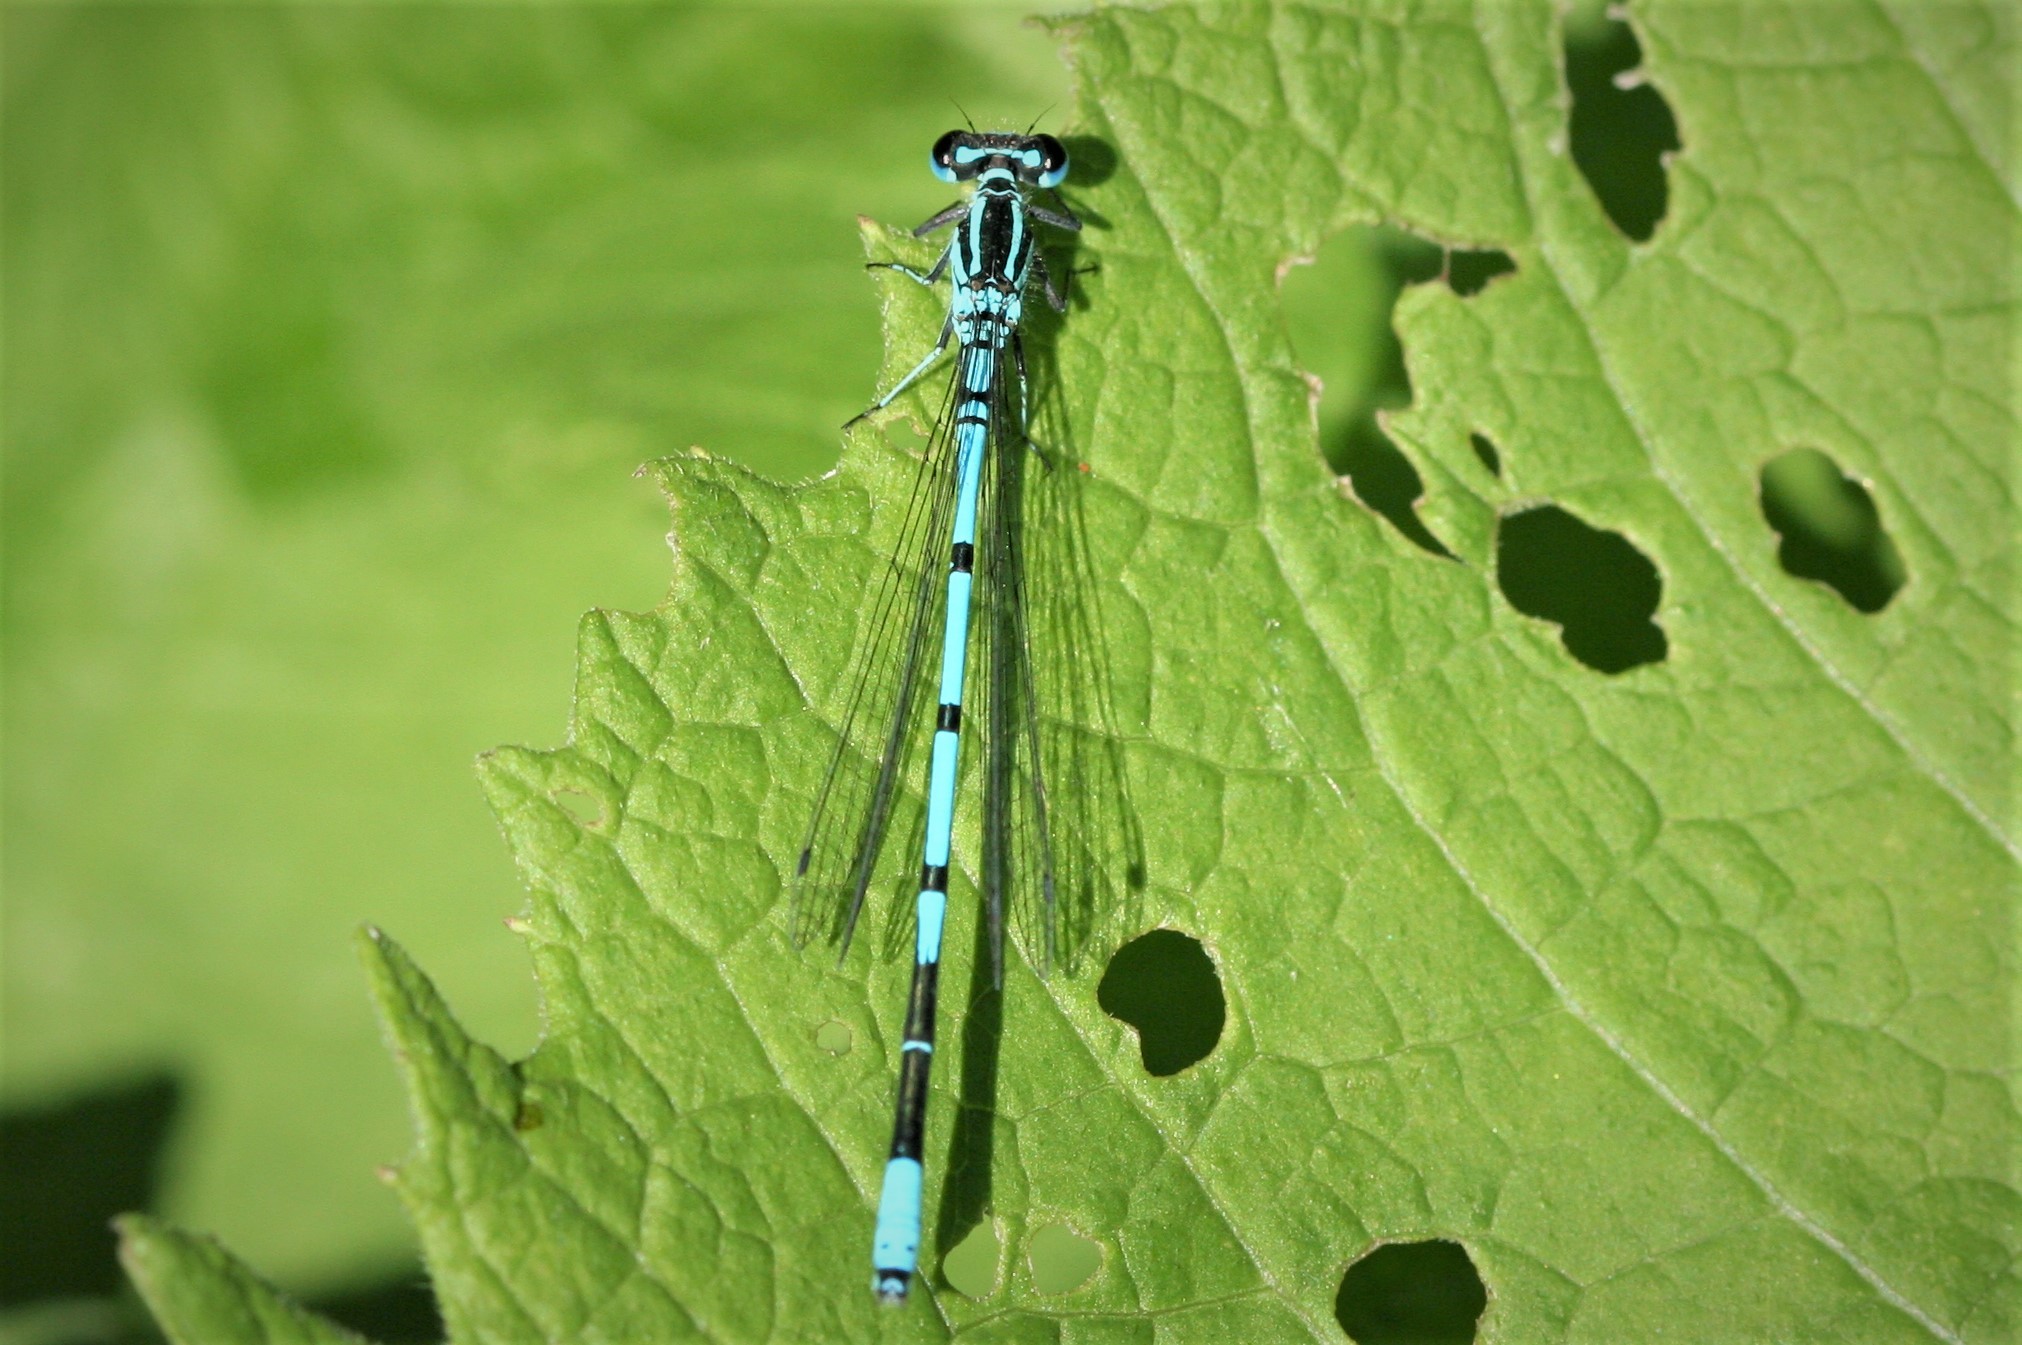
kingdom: Animalia
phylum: Arthropoda
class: Insecta
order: Odonata
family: Coenagrionidae
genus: Coenagrion
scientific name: Coenagrion puella
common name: Azure damselfly
